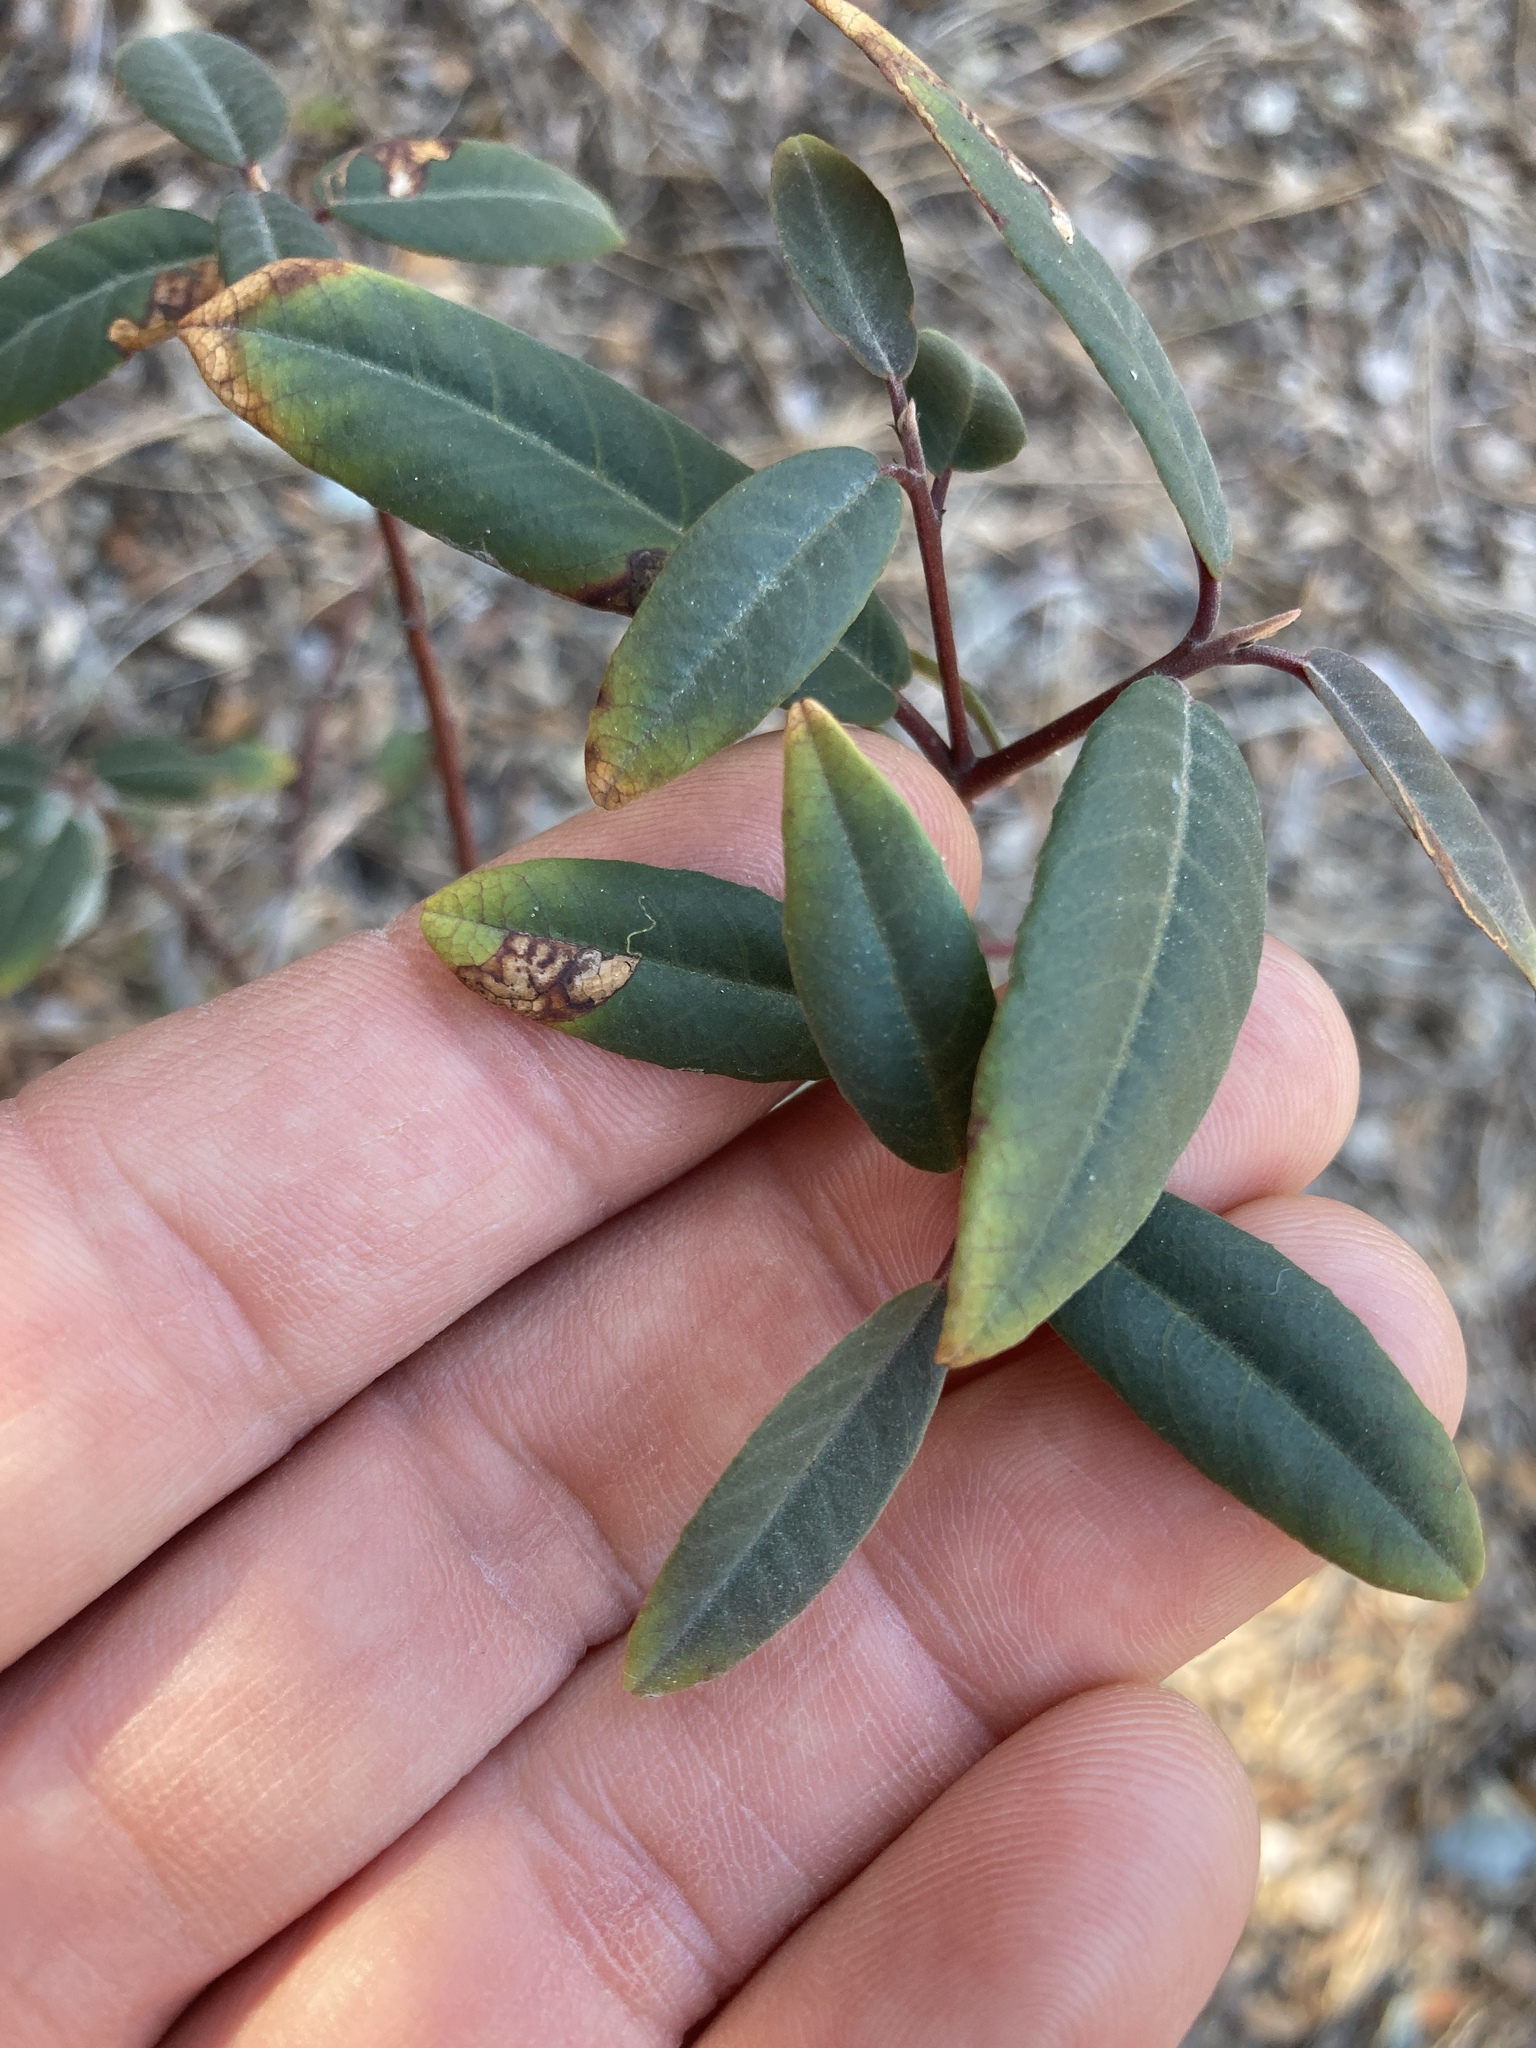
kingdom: Plantae
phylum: Tracheophyta
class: Magnoliopsida
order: Rosales
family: Rhamnaceae
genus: Frangula
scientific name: Frangula californica
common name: California buckthorn
